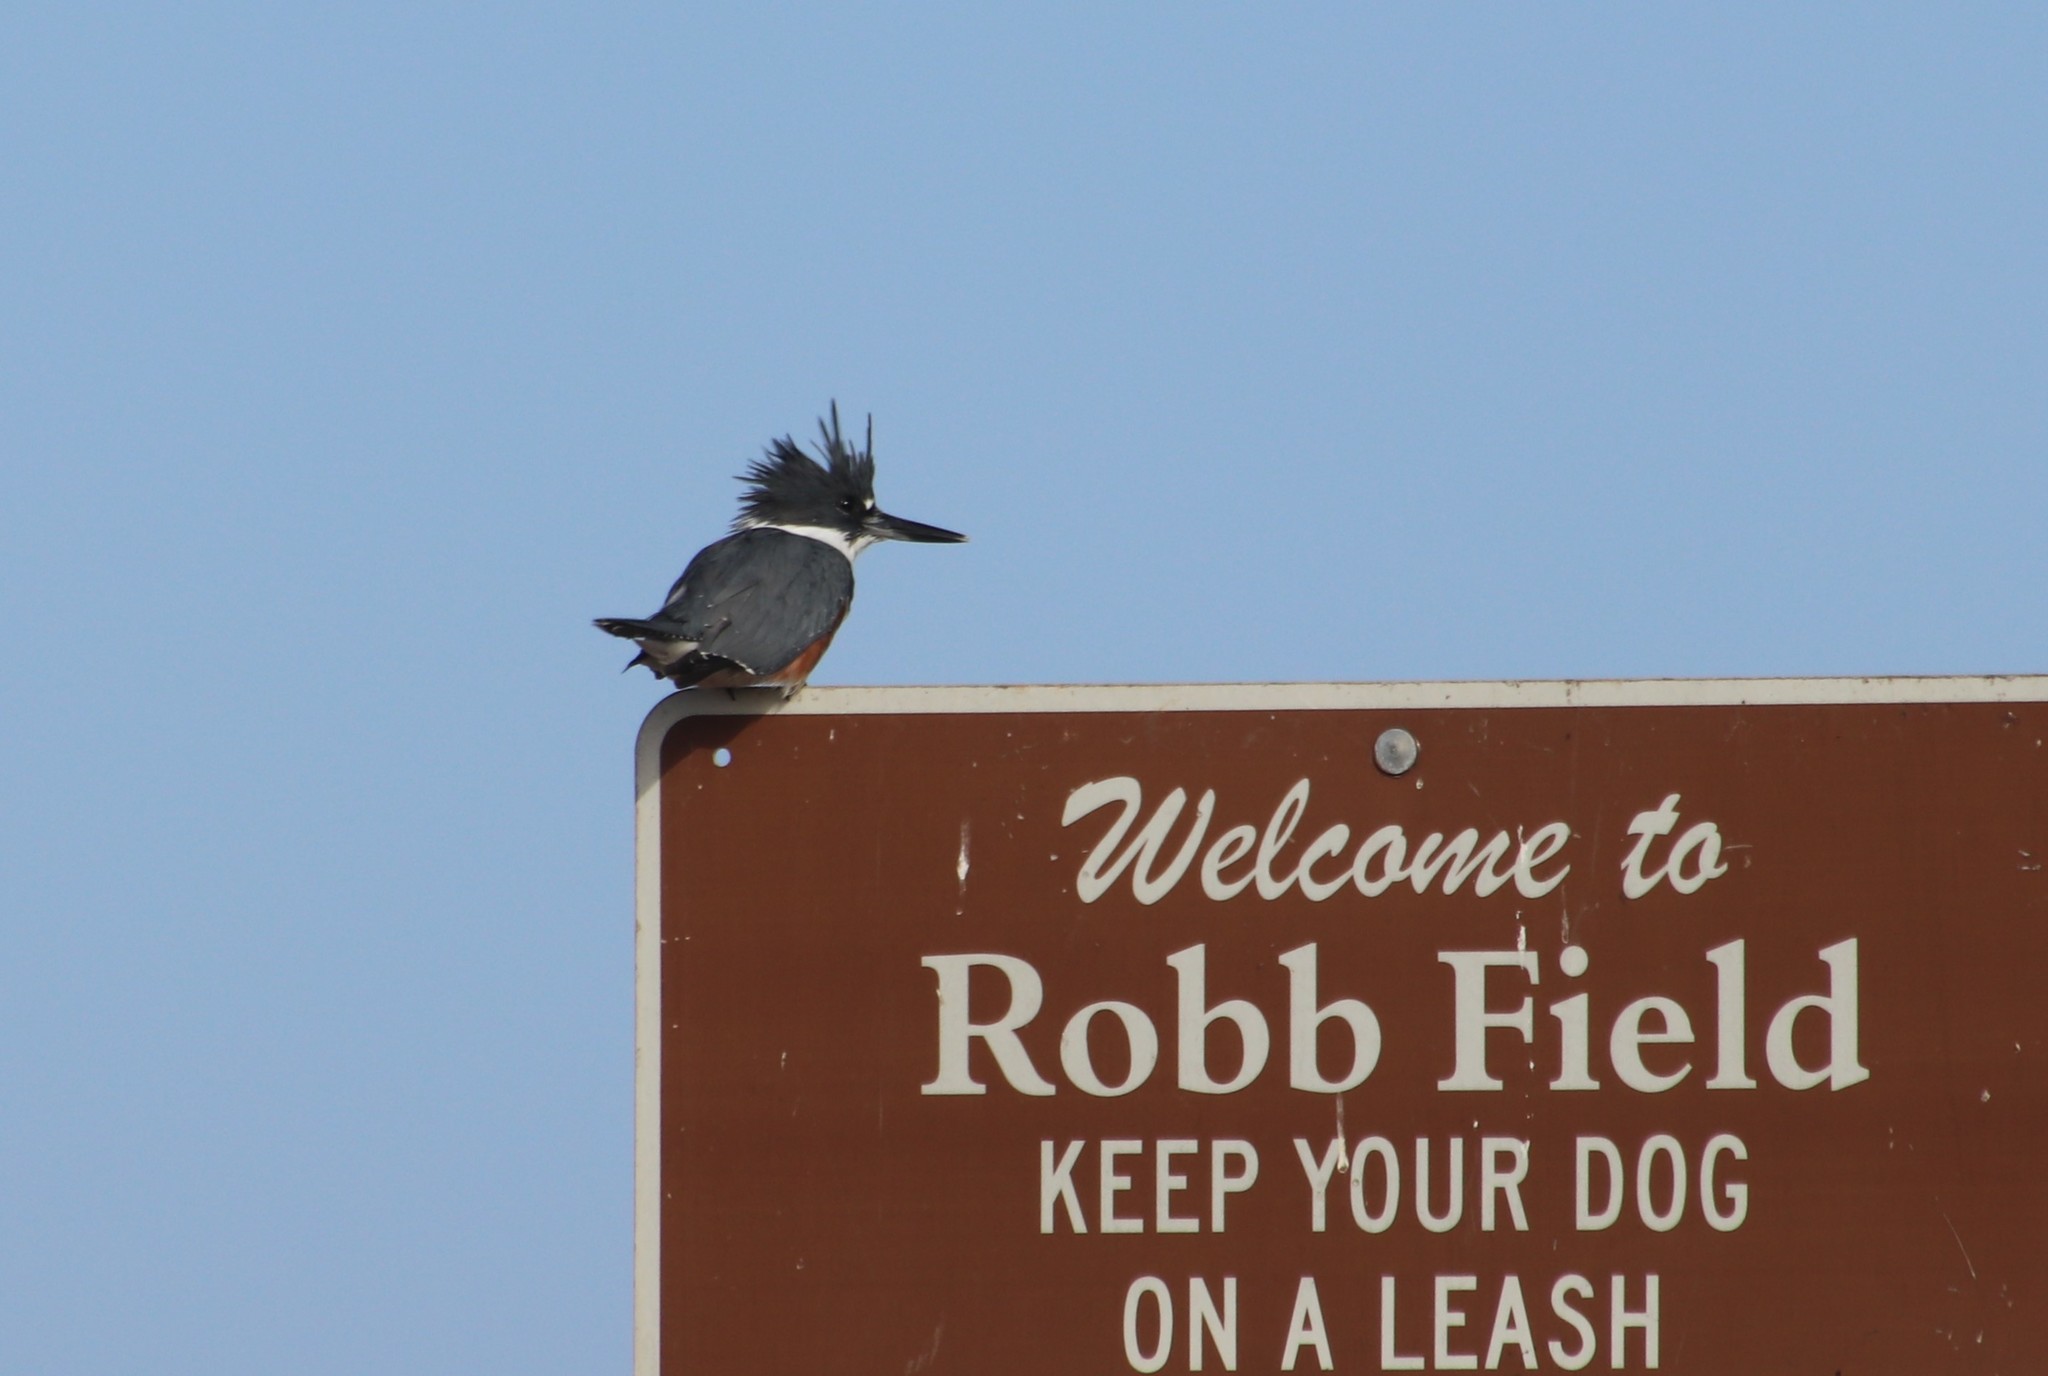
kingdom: Animalia
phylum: Chordata
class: Aves
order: Coraciiformes
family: Alcedinidae
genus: Megaceryle
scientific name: Megaceryle alcyon
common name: Belted kingfisher
